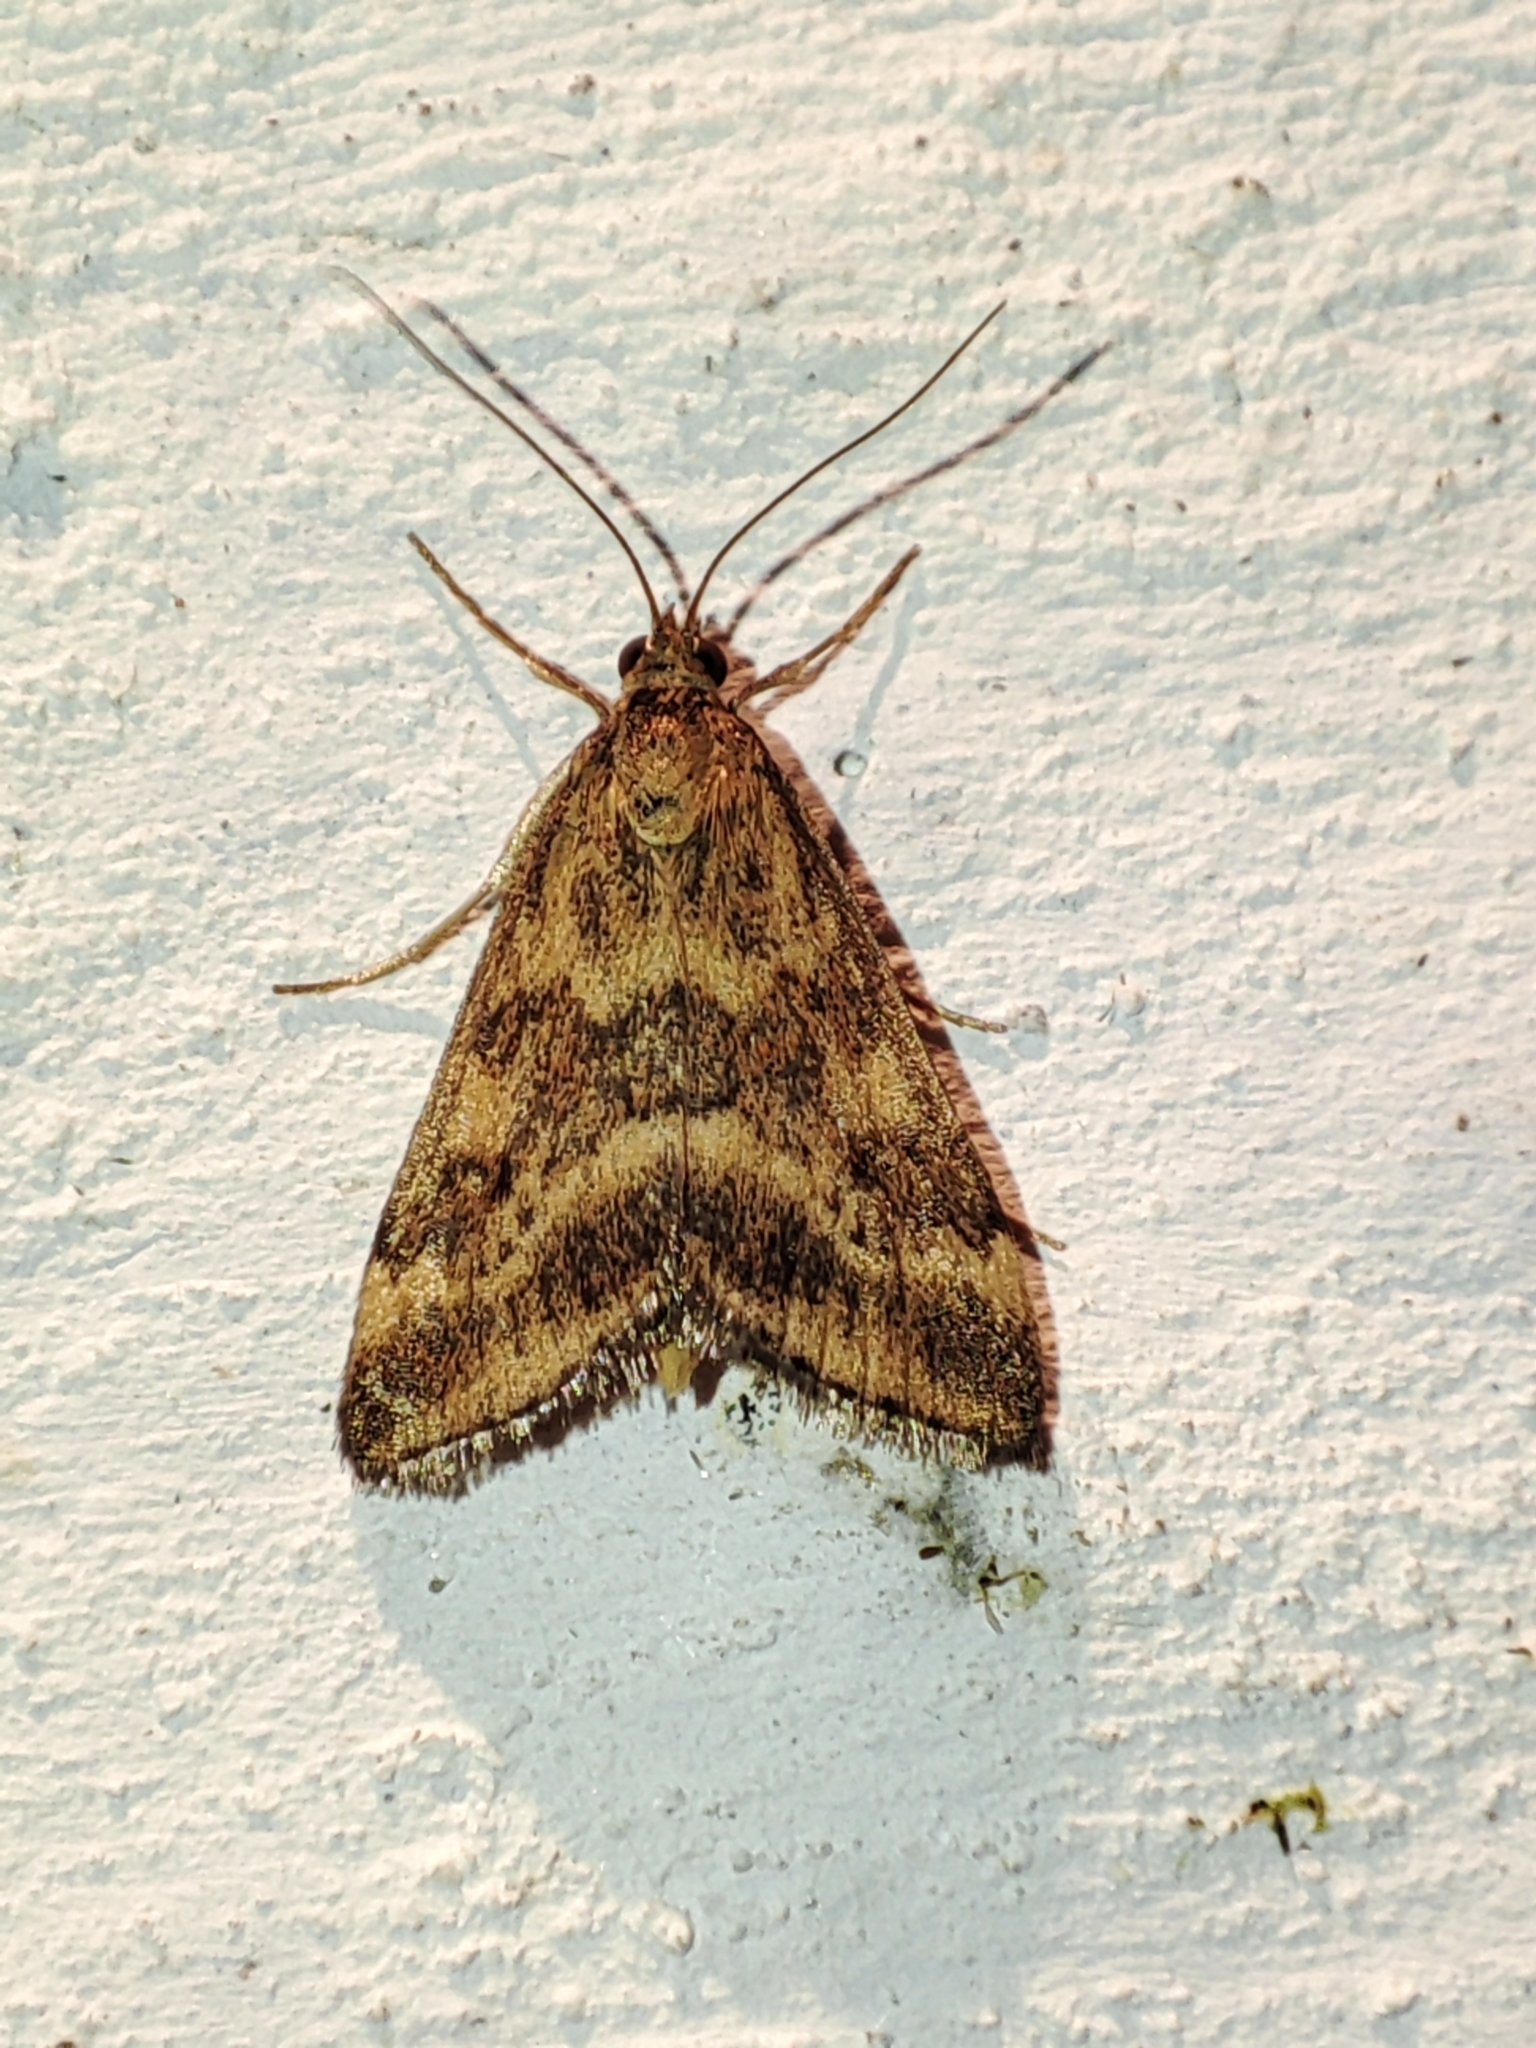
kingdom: Animalia
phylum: Arthropoda
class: Insecta
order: Lepidoptera
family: Crambidae
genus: Pyrausta
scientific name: Pyrausta despicata
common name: Straw-barred pearl
